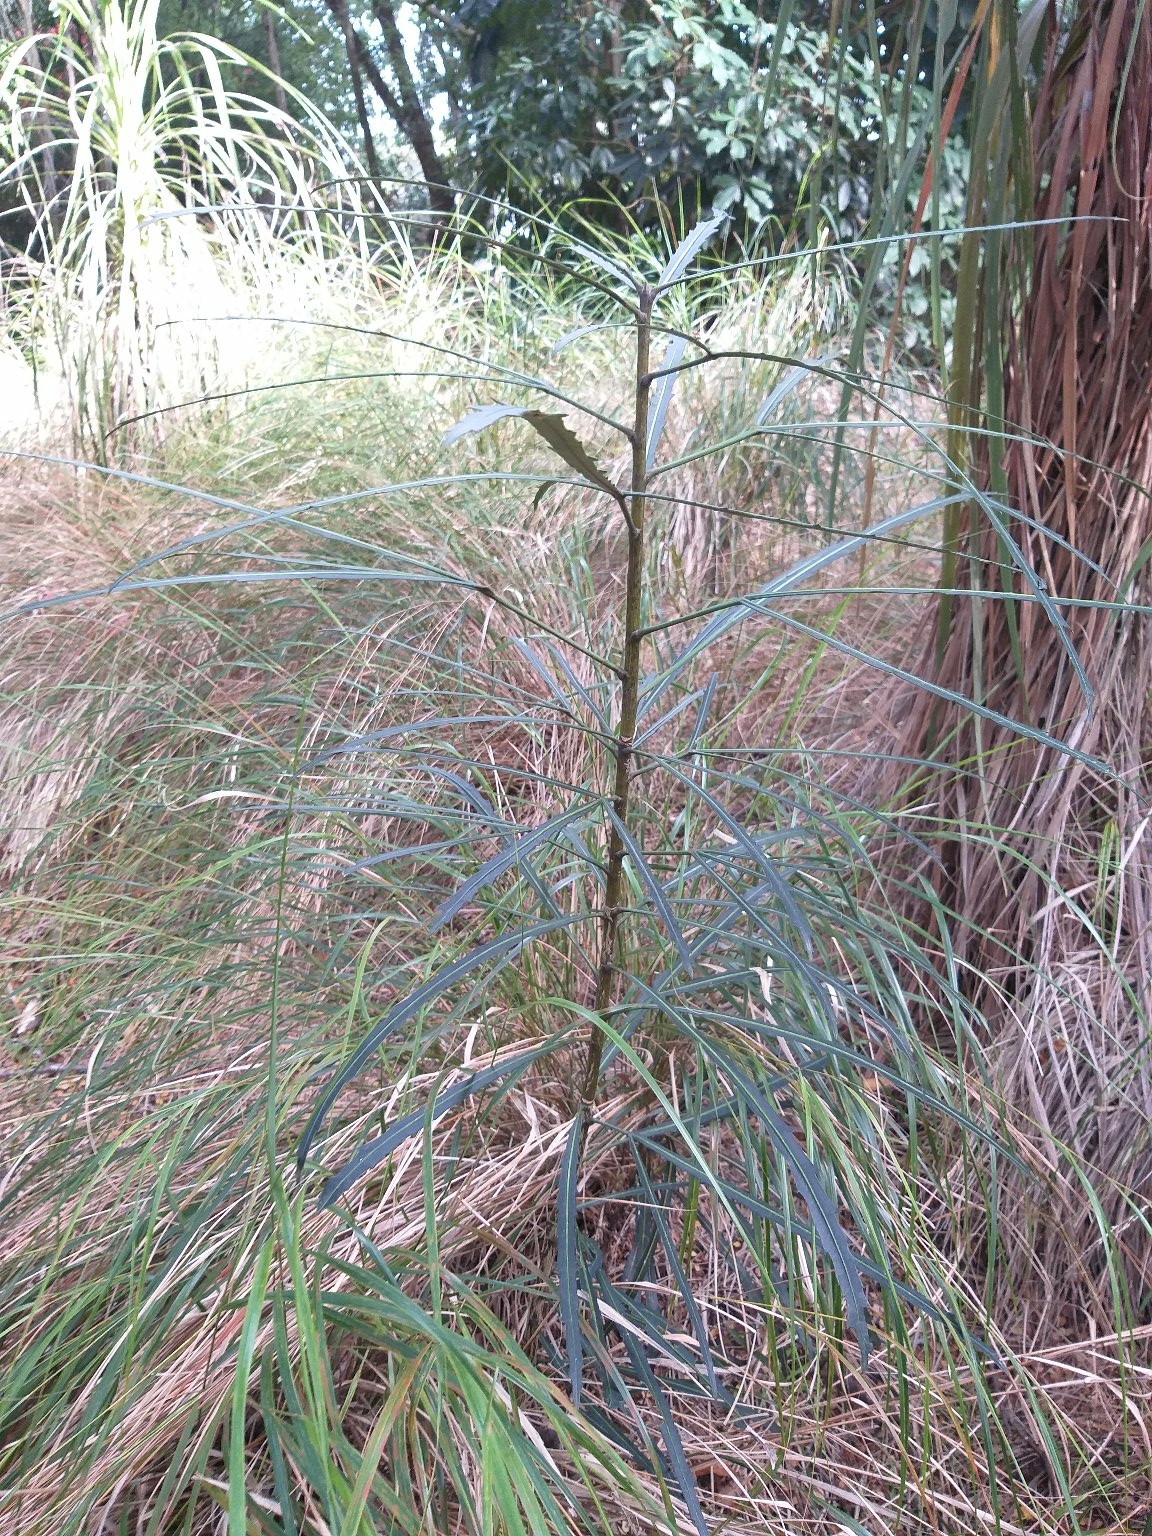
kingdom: Plantae
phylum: Tracheophyta
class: Magnoliopsida
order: Apiales
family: Araliaceae
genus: Pseudopanax
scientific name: Pseudopanax
